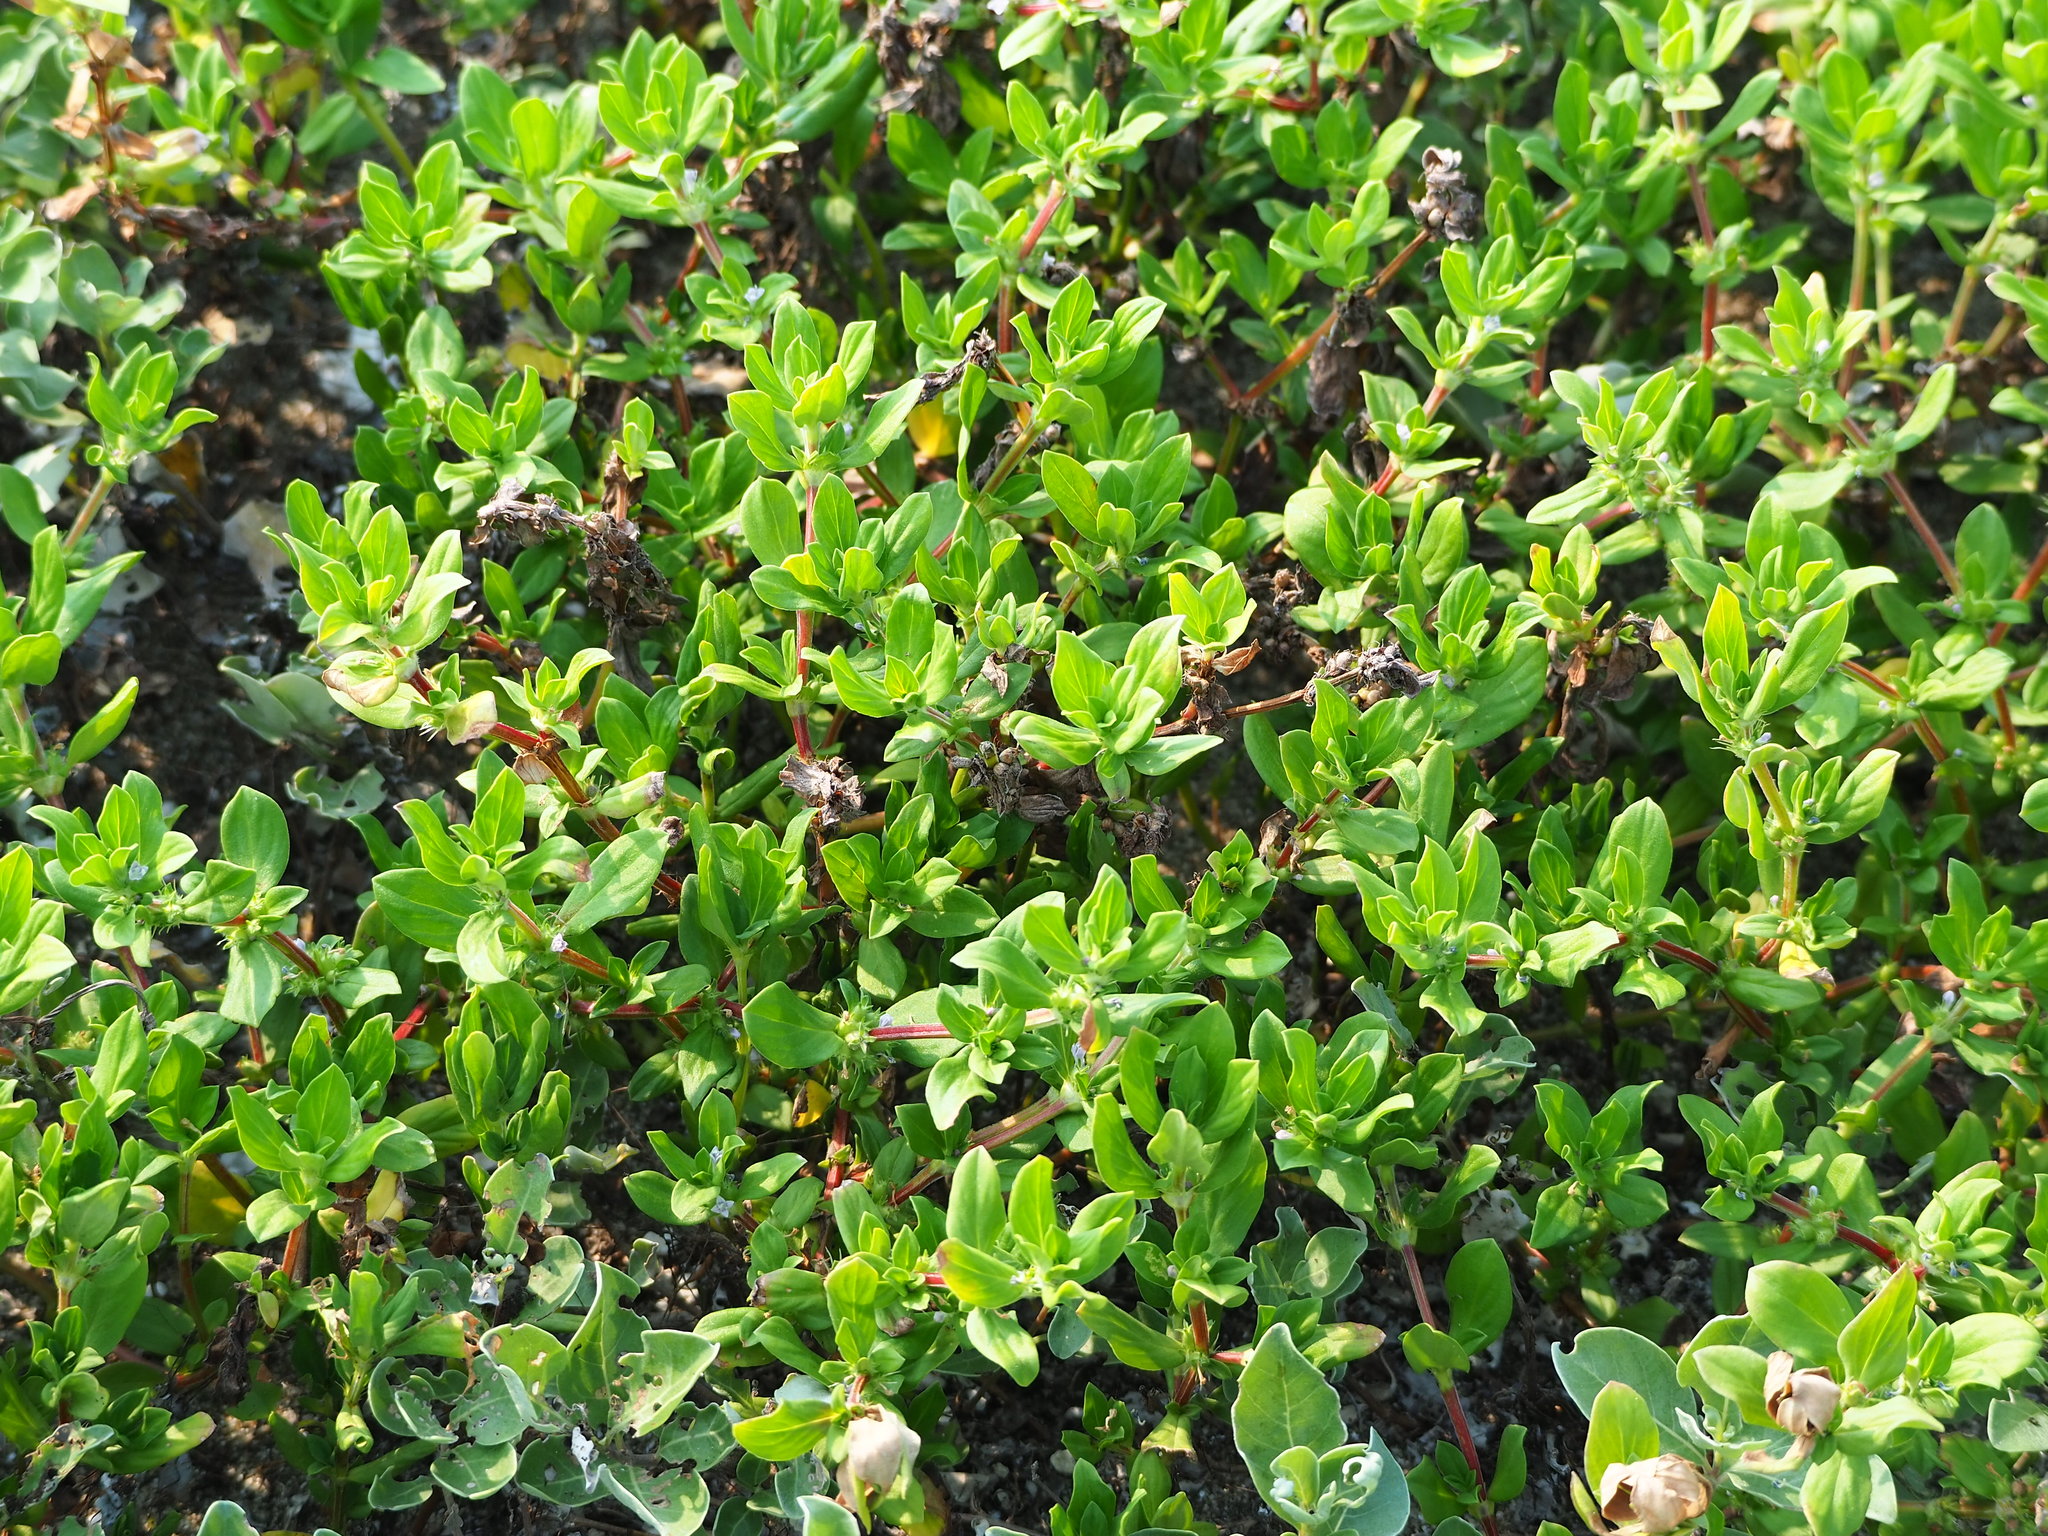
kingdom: Plantae
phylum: Tracheophyta
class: Magnoliopsida
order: Gentianales
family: Rubiaceae
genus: Spermacoce
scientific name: Spermacoce articularis
